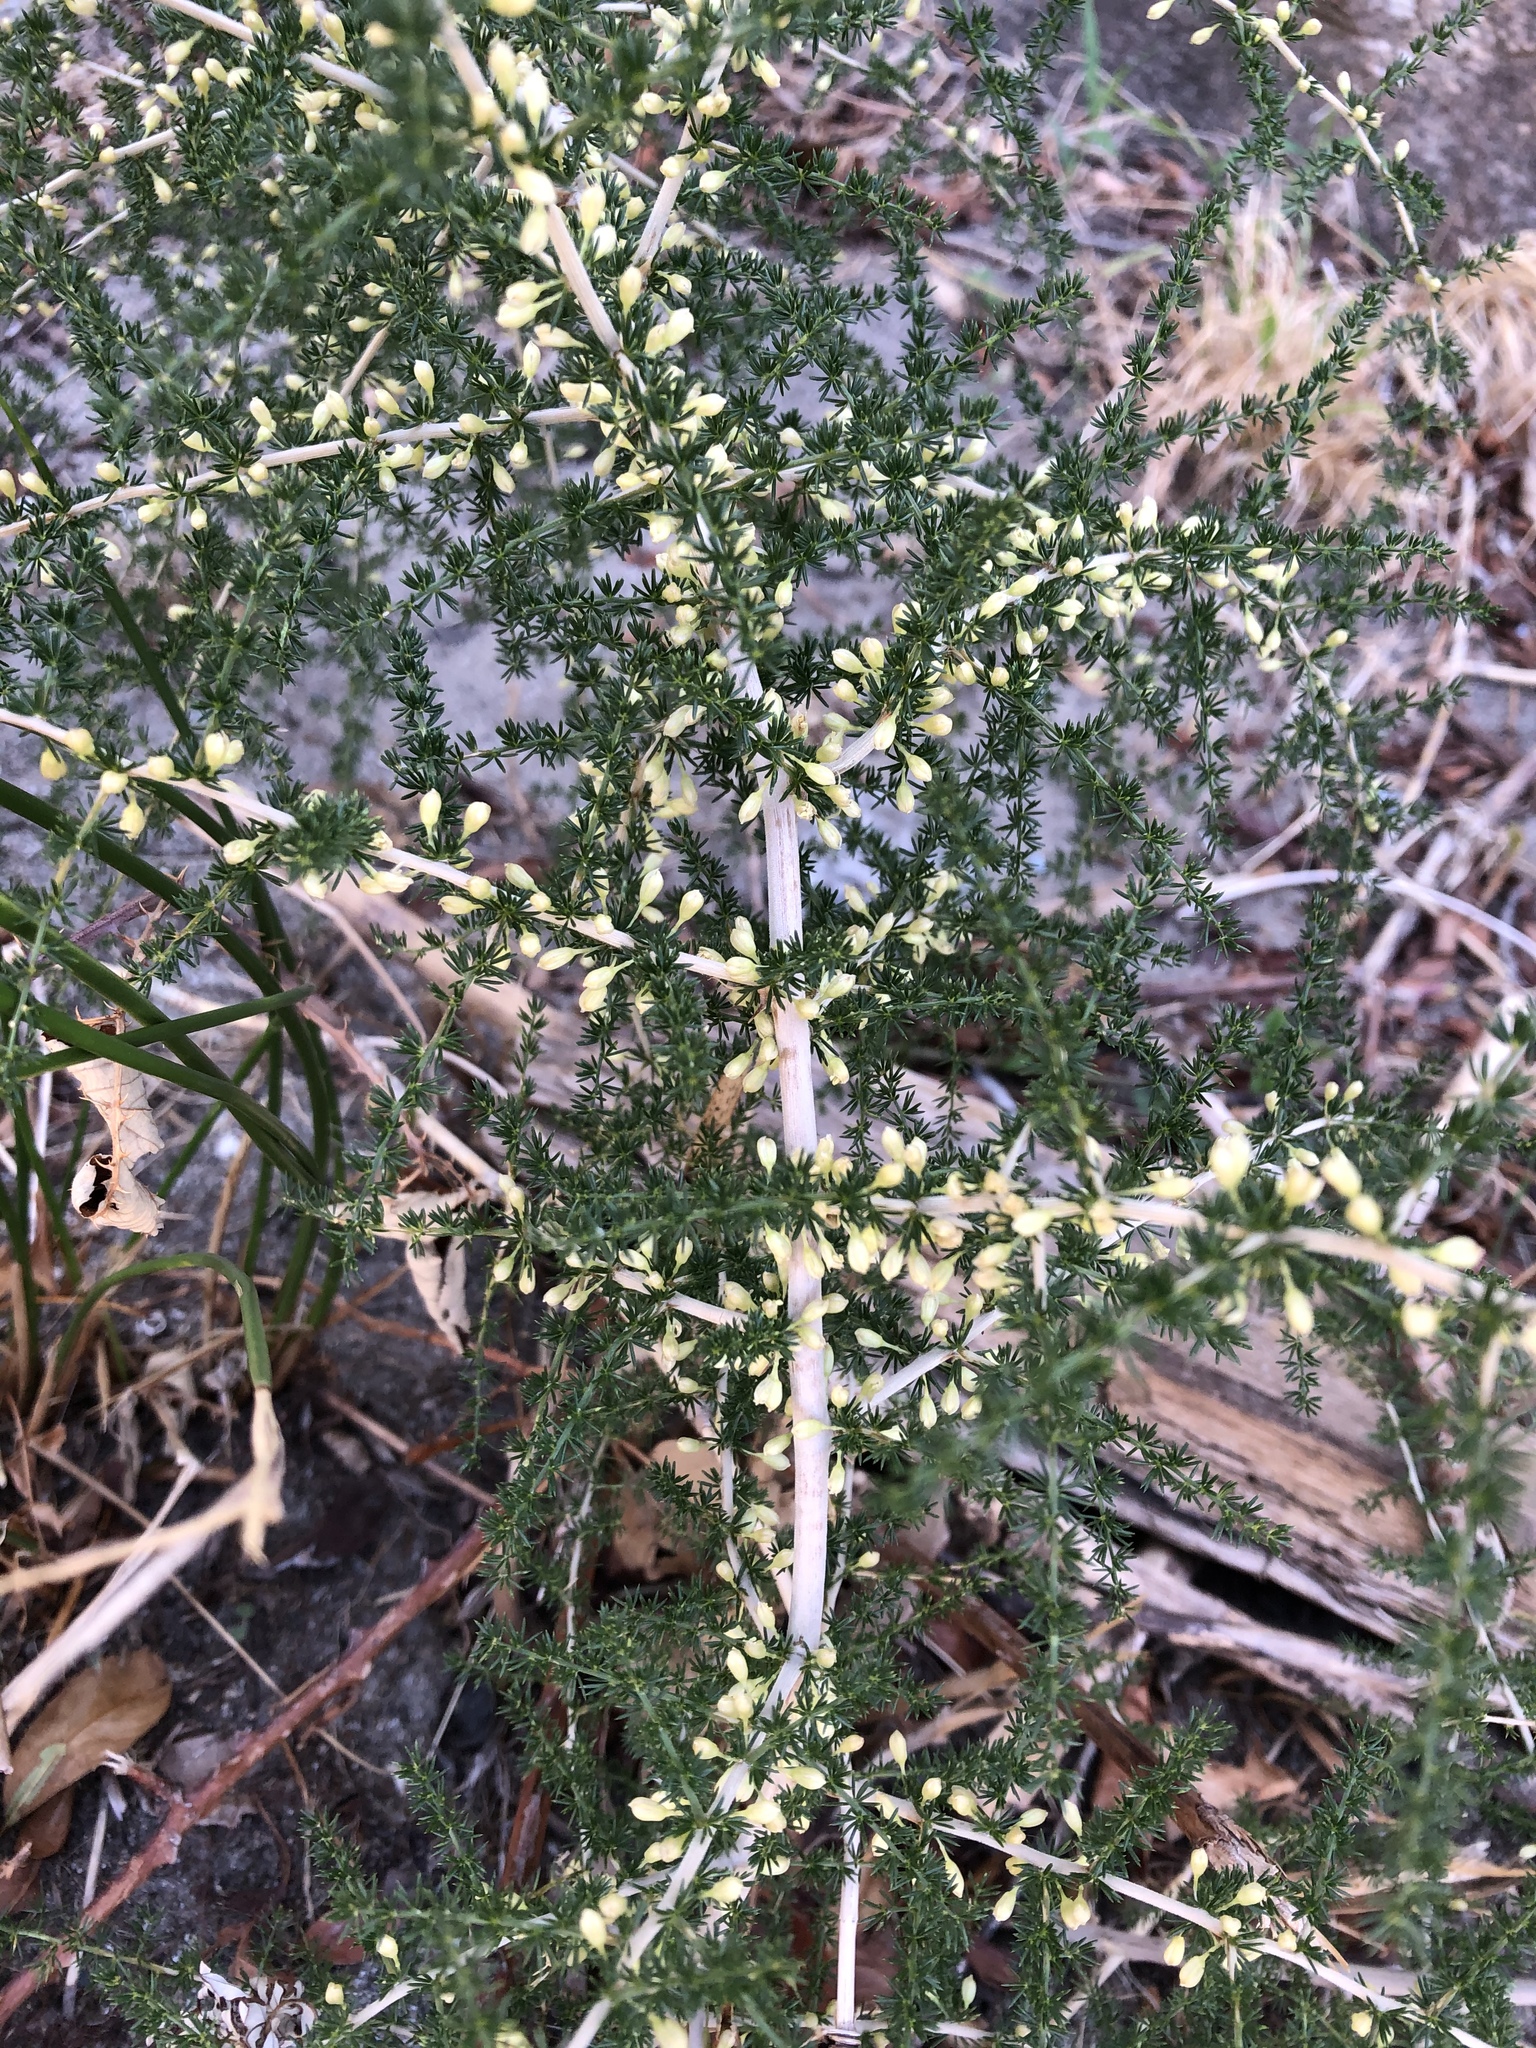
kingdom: Plantae
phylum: Tracheophyta
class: Liliopsida
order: Asparagales
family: Asparagaceae
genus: Asparagus
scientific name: Asparagus acutifolius
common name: Wild asparagus
